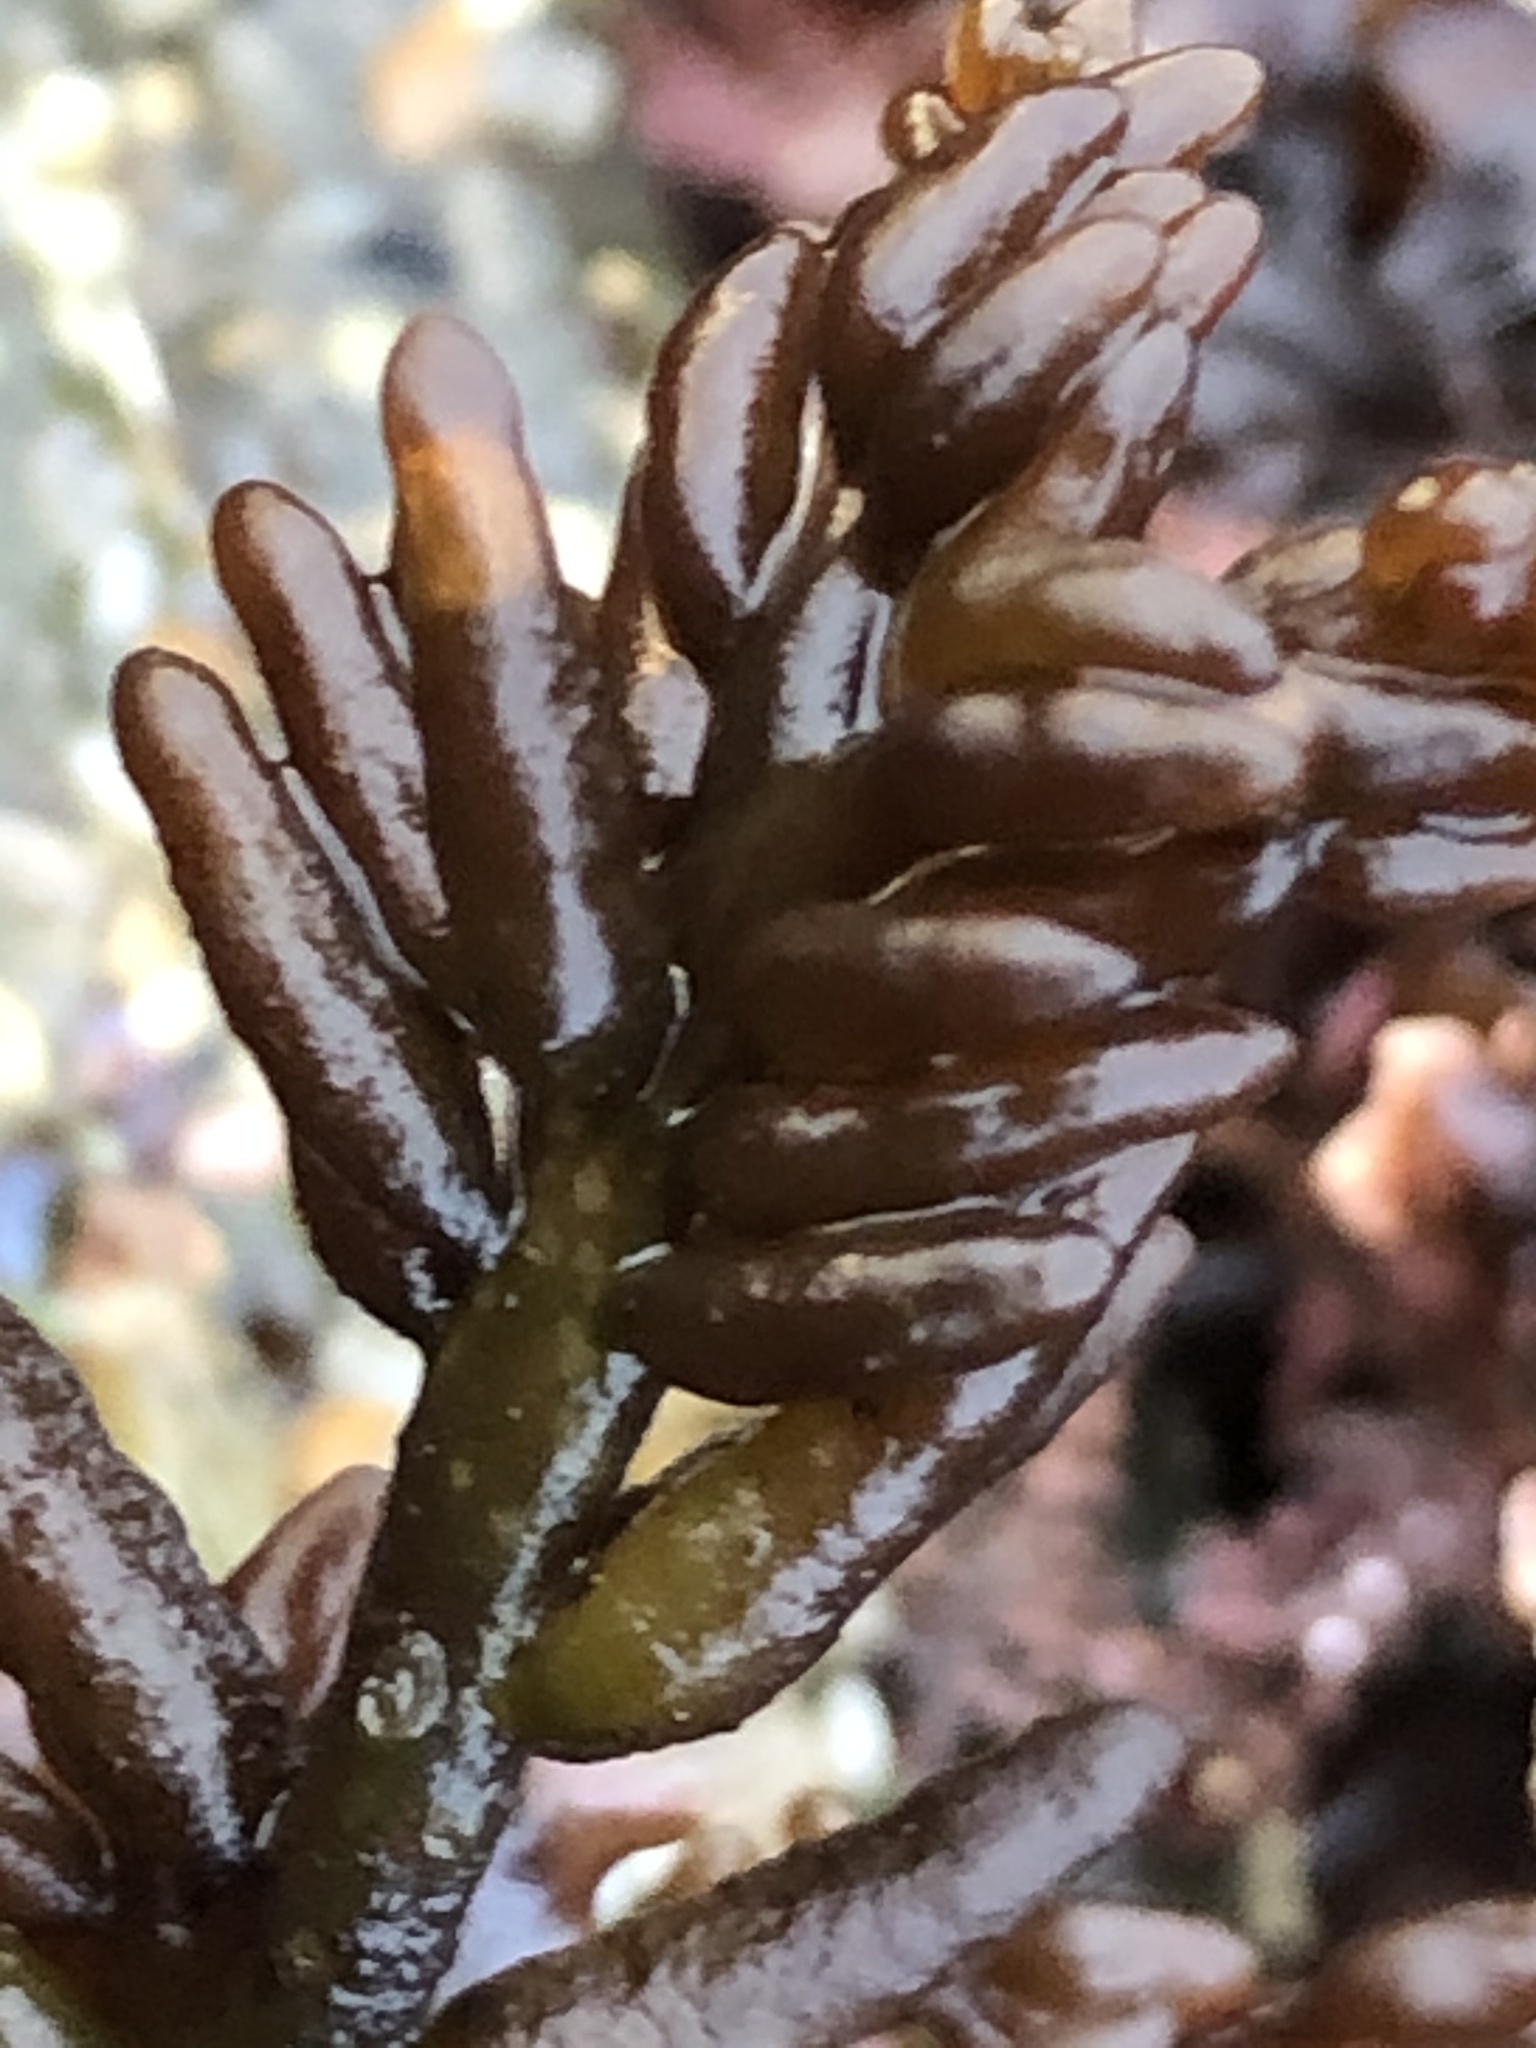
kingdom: Plantae
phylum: Rhodophyta
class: Florideophyceae
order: Rhodymeniales
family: Champiaceae
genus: Neogastroclonium
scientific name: Neogastroclonium subarticulatum
